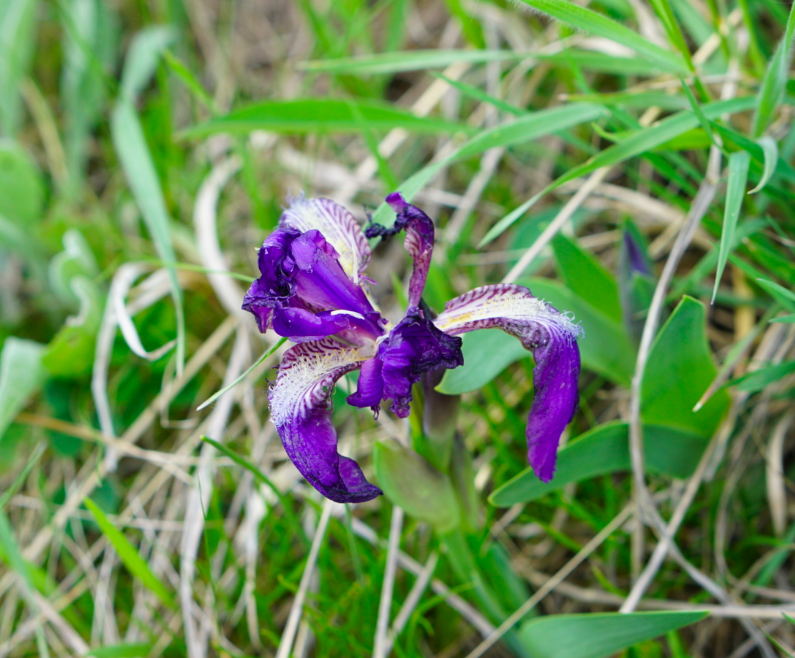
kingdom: Plantae
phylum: Tracheophyta
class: Liliopsida
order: Asparagales
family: Iridaceae
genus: Iris
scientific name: Iris aphylla
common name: Stool iris
